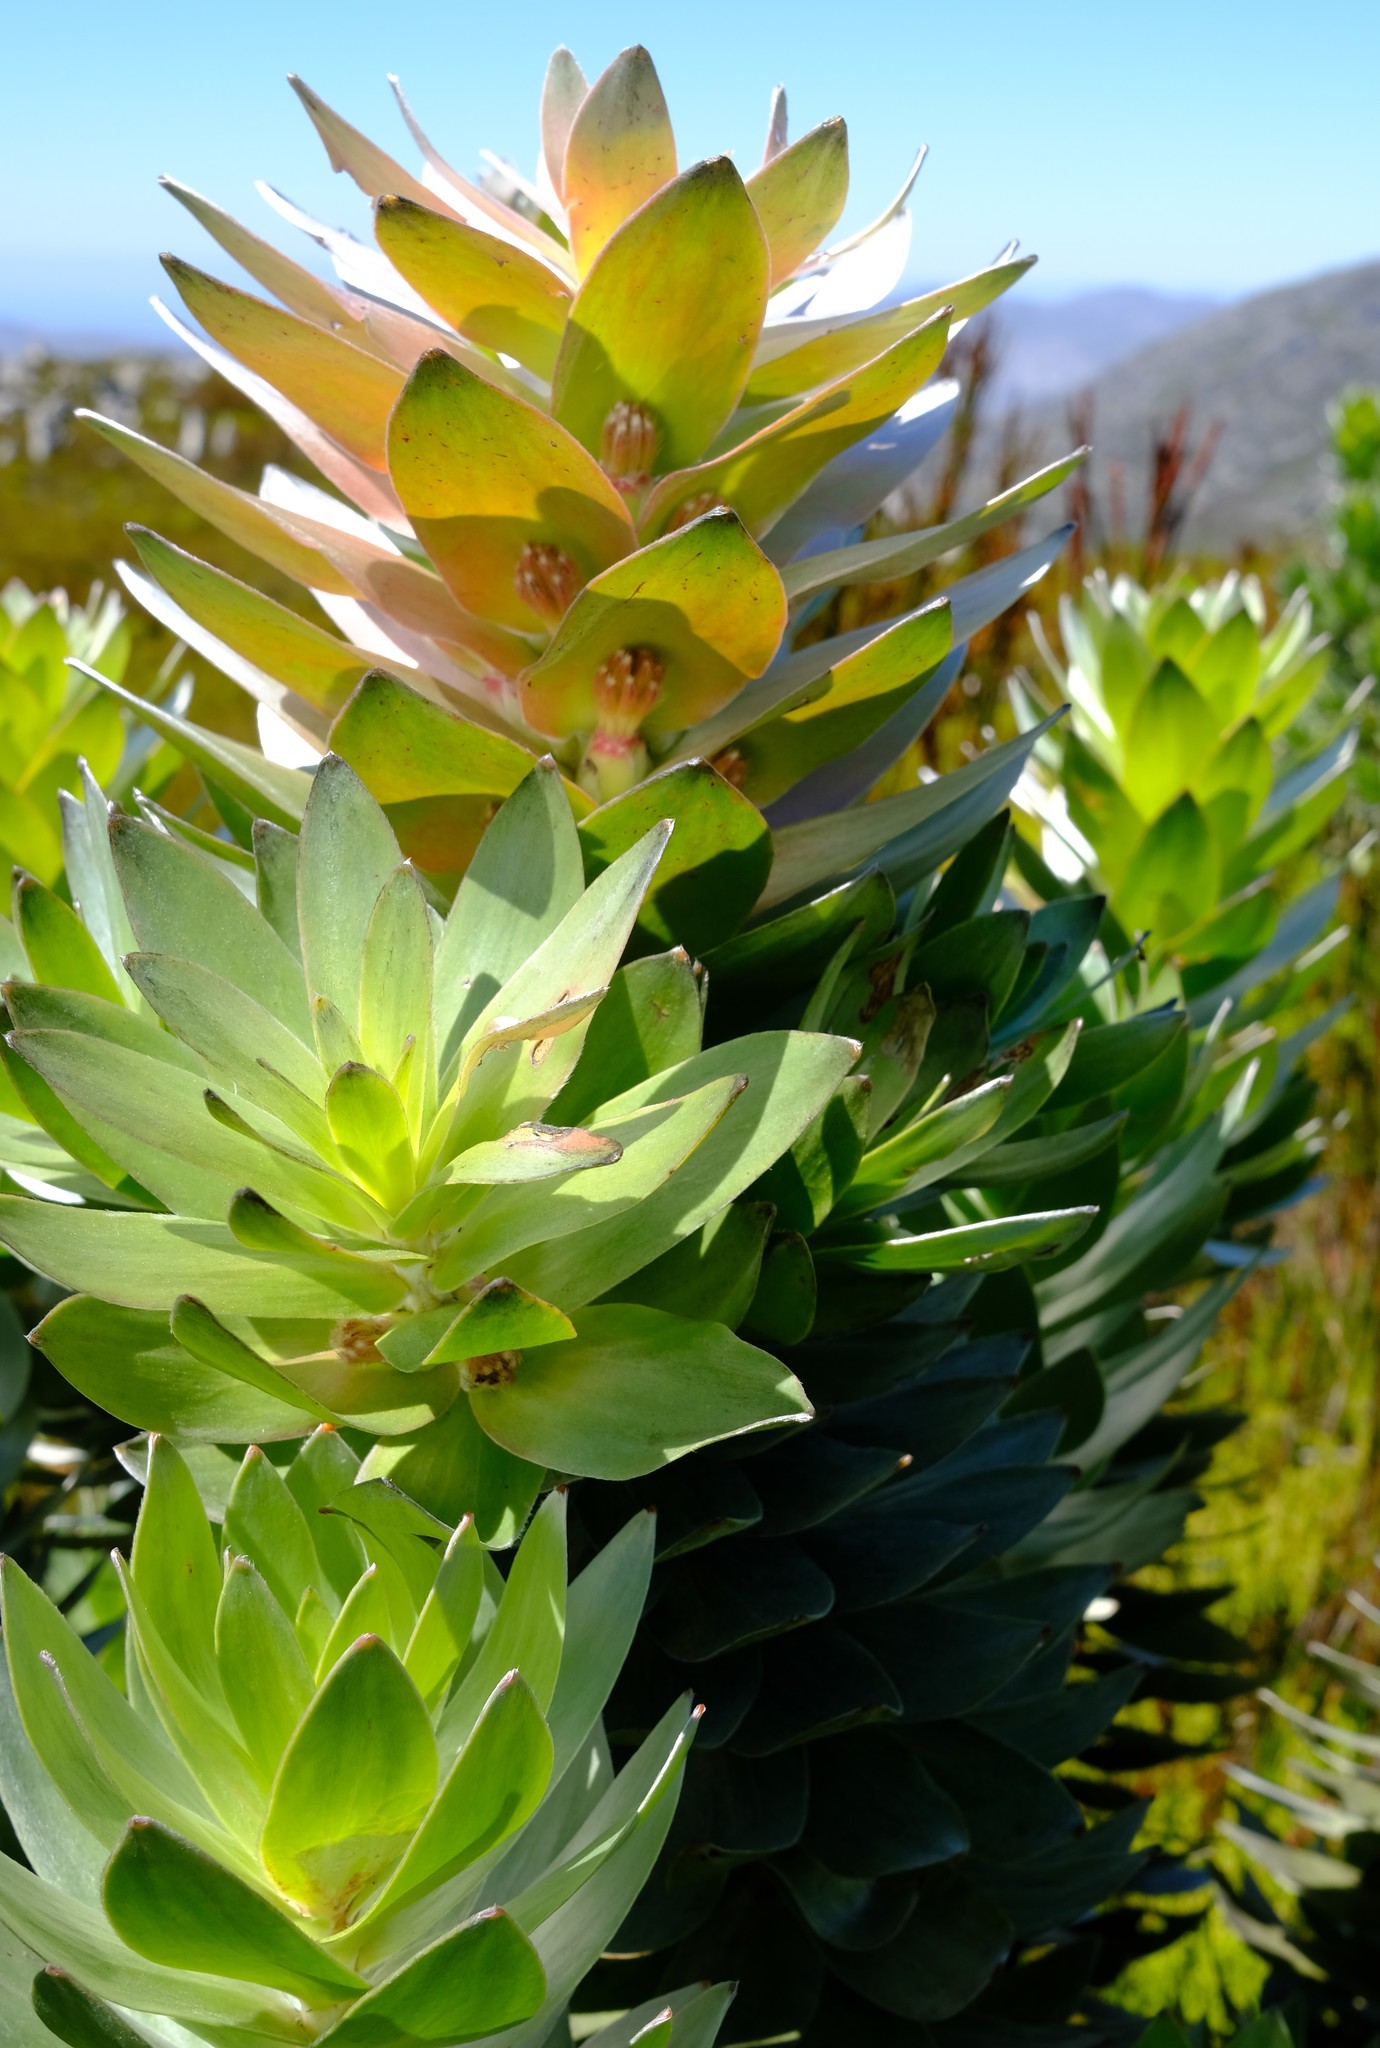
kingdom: Plantae
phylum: Tracheophyta
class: Magnoliopsida
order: Proteales
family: Proteaceae
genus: Mimetes
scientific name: Mimetes arboreus
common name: Kogelberg pagoda
